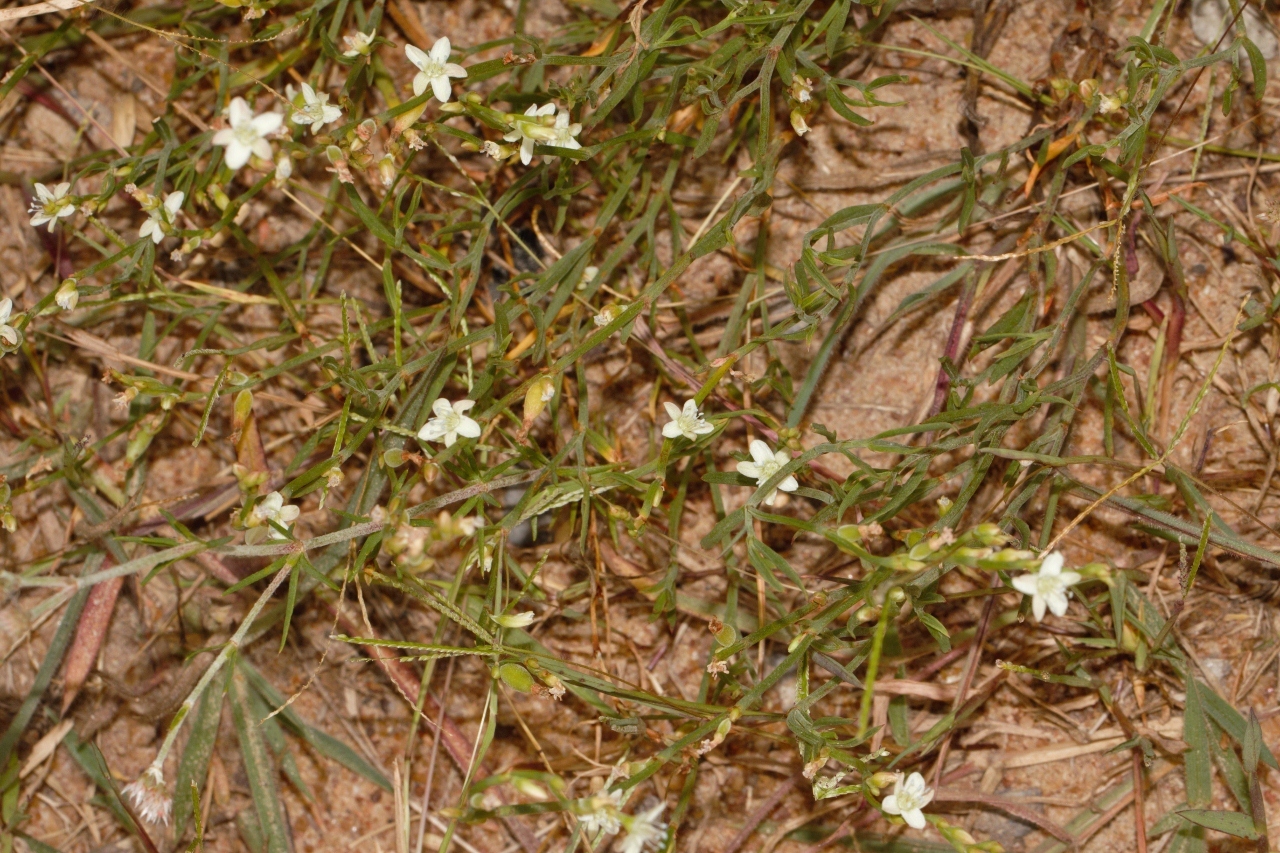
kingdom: Plantae
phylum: Tracheophyta
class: Magnoliopsida
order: Caryophyllales
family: Polygonaceae
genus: Oxygonum
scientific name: Oxygonum dregeanum
